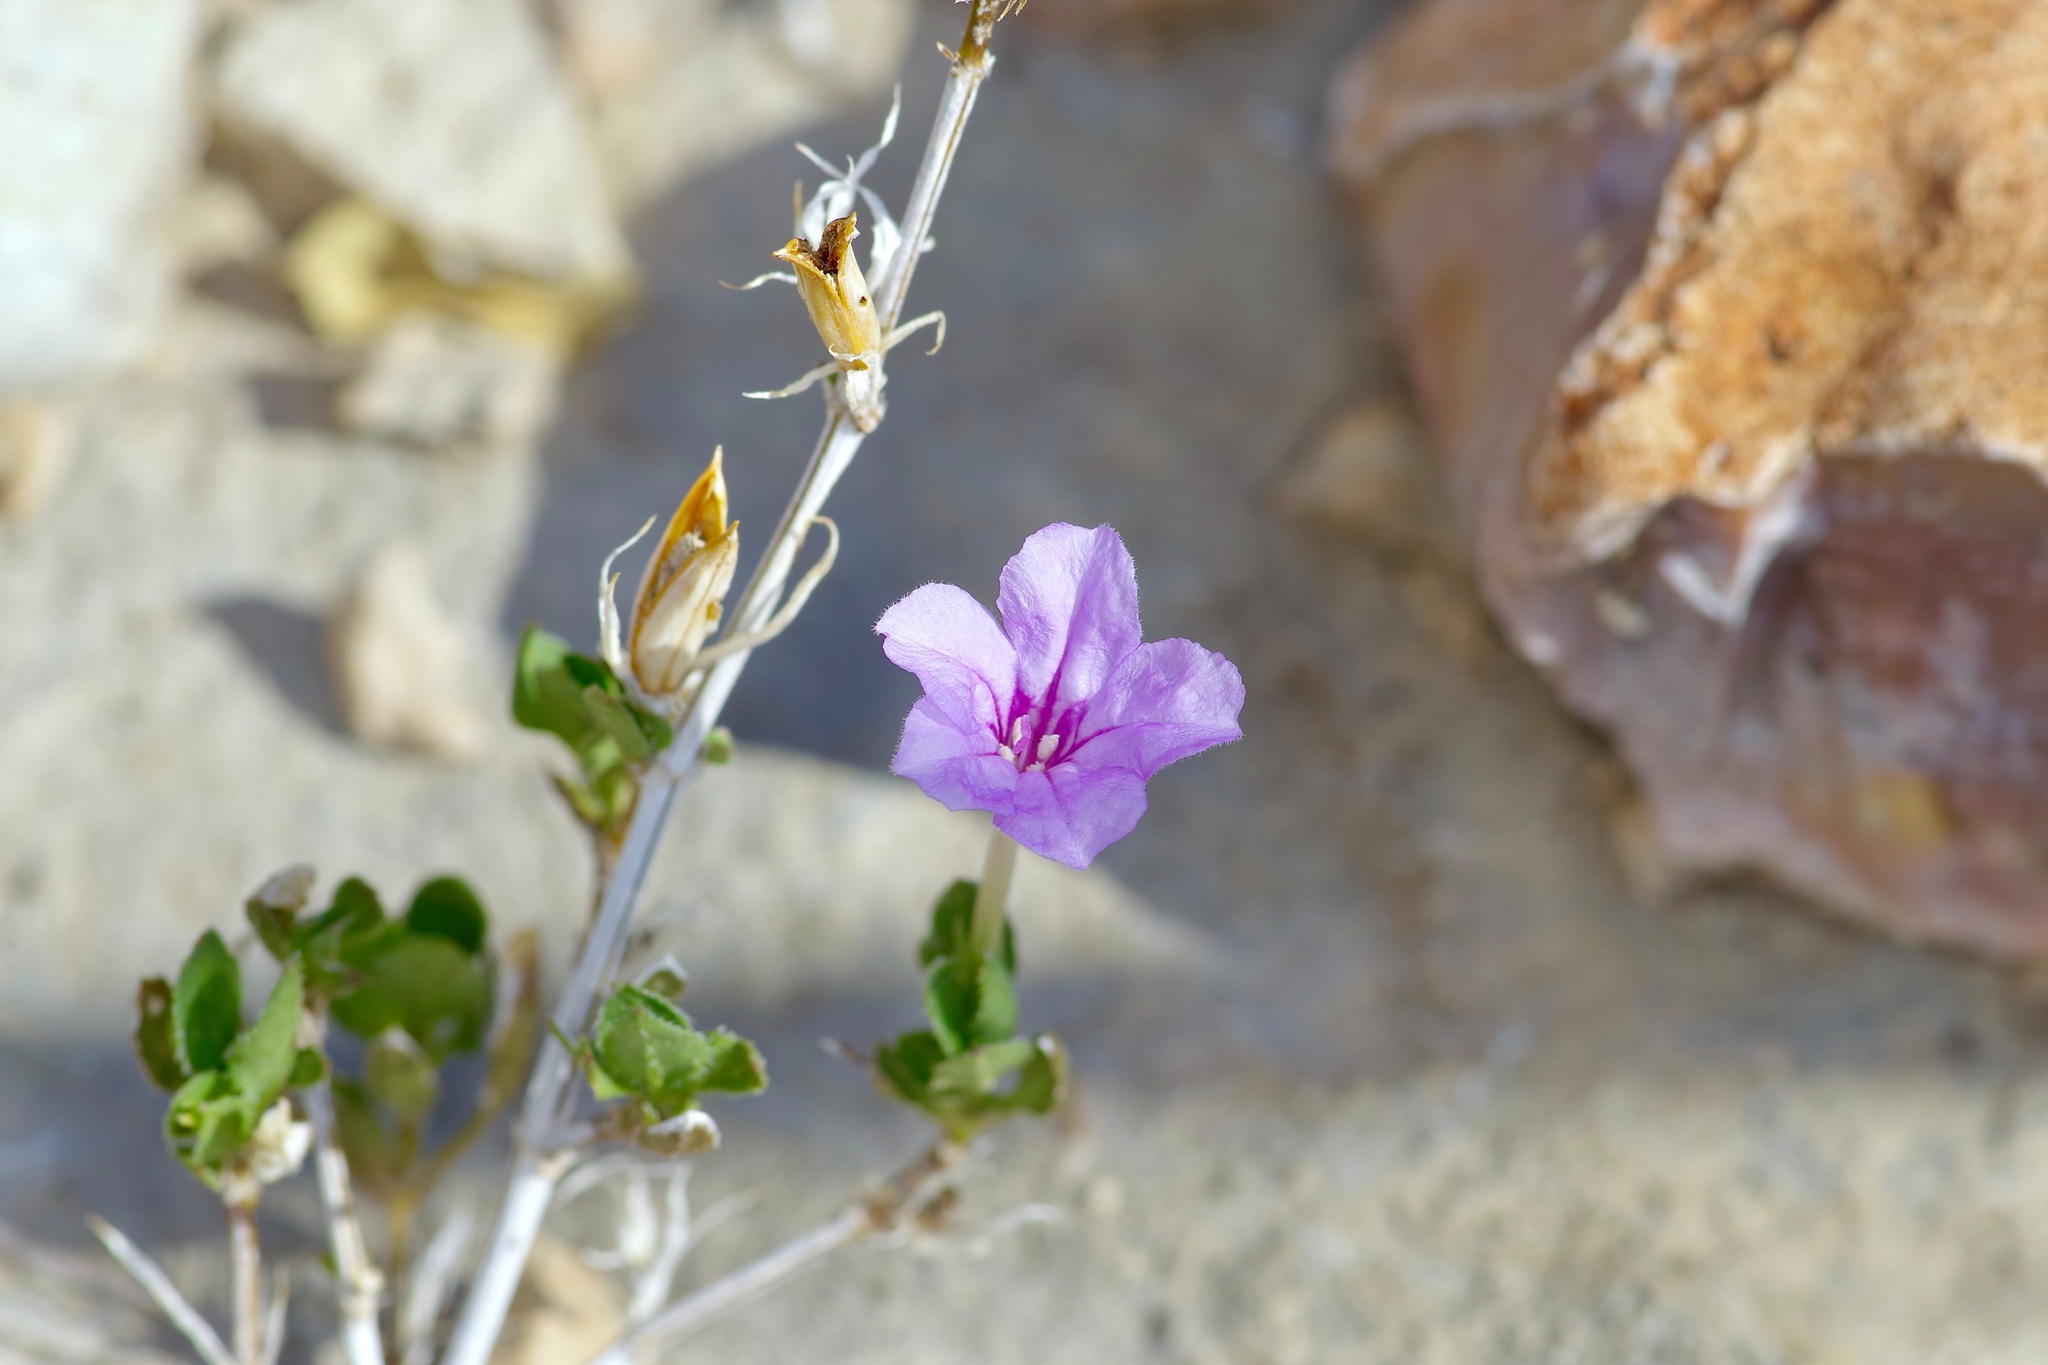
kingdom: Plantae
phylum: Tracheophyta
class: Magnoliopsida
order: Lamiales
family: Acanthaceae
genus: Ruellia
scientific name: Ruellia parryi
